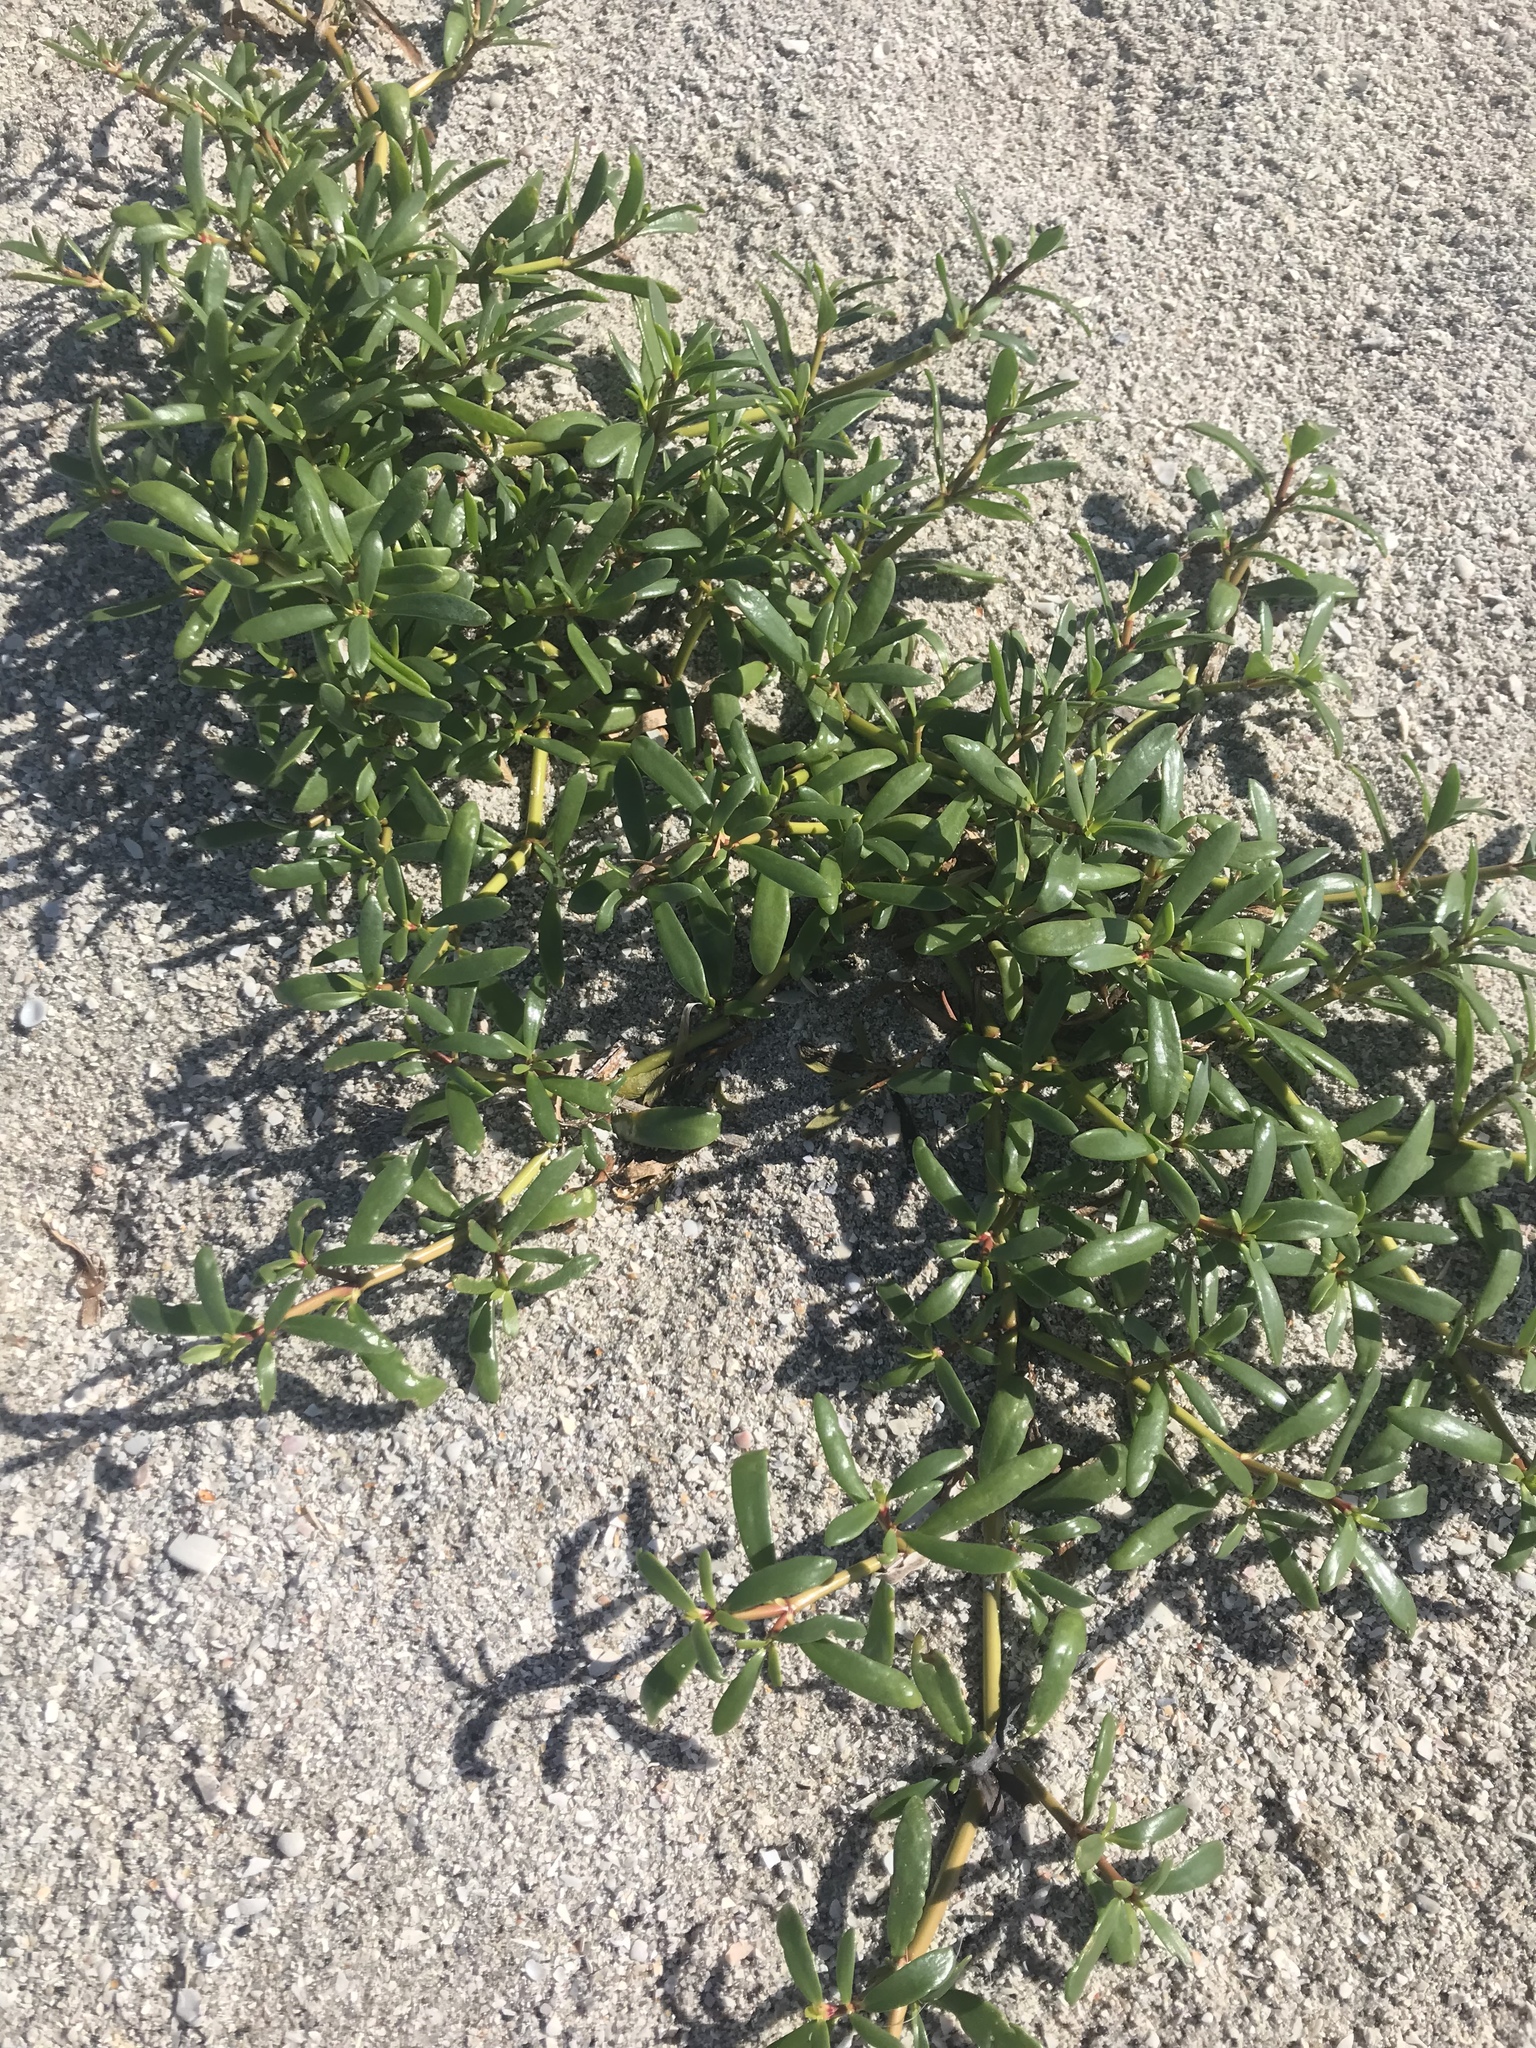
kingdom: Plantae
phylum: Tracheophyta
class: Magnoliopsida
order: Caryophyllales
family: Aizoaceae
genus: Sesuvium
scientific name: Sesuvium portulacastrum
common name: Sea-purslane
